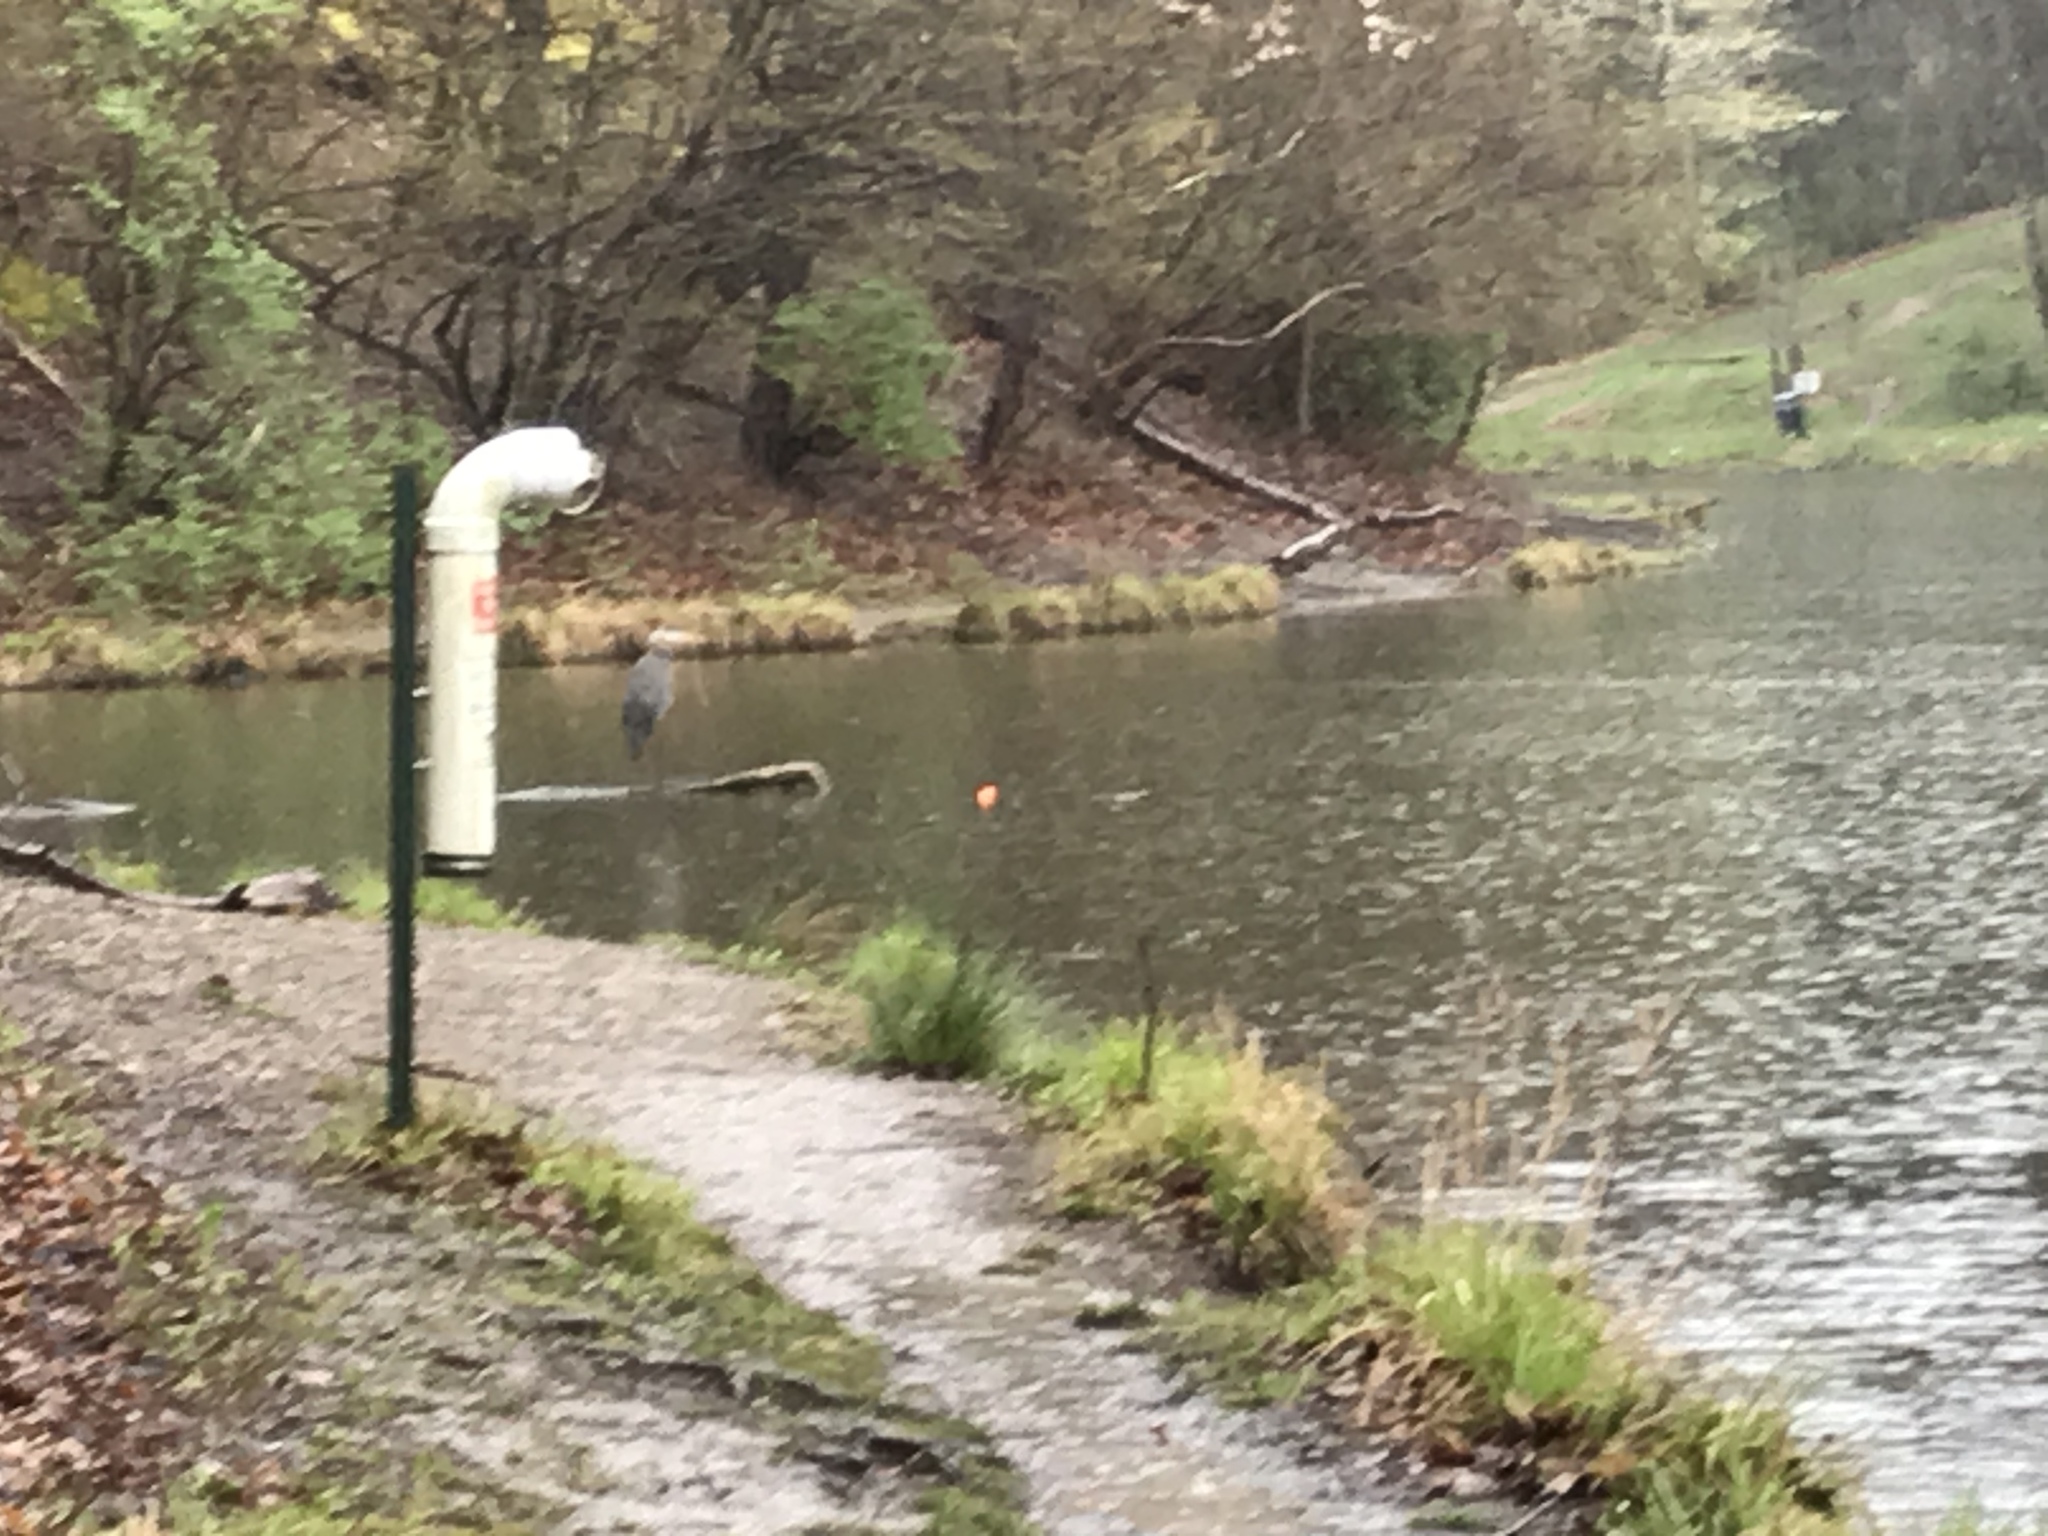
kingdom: Animalia
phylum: Chordata
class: Aves
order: Pelecaniformes
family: Ardeidae
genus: Ardea
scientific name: Ardea herodias
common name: Great blue heron
